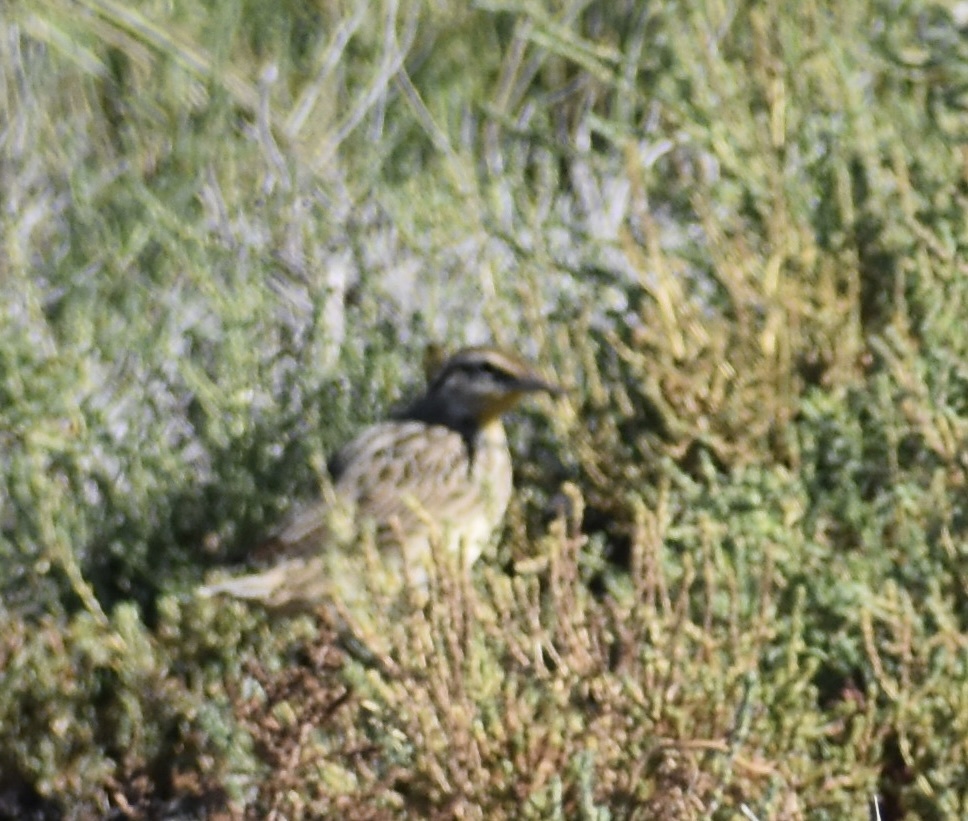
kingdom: Animalia
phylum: Chordata
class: Aves
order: Passeriformes
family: Icteridae
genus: Sturnella
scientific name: Sturnella neglecta
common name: Western meadowlark
